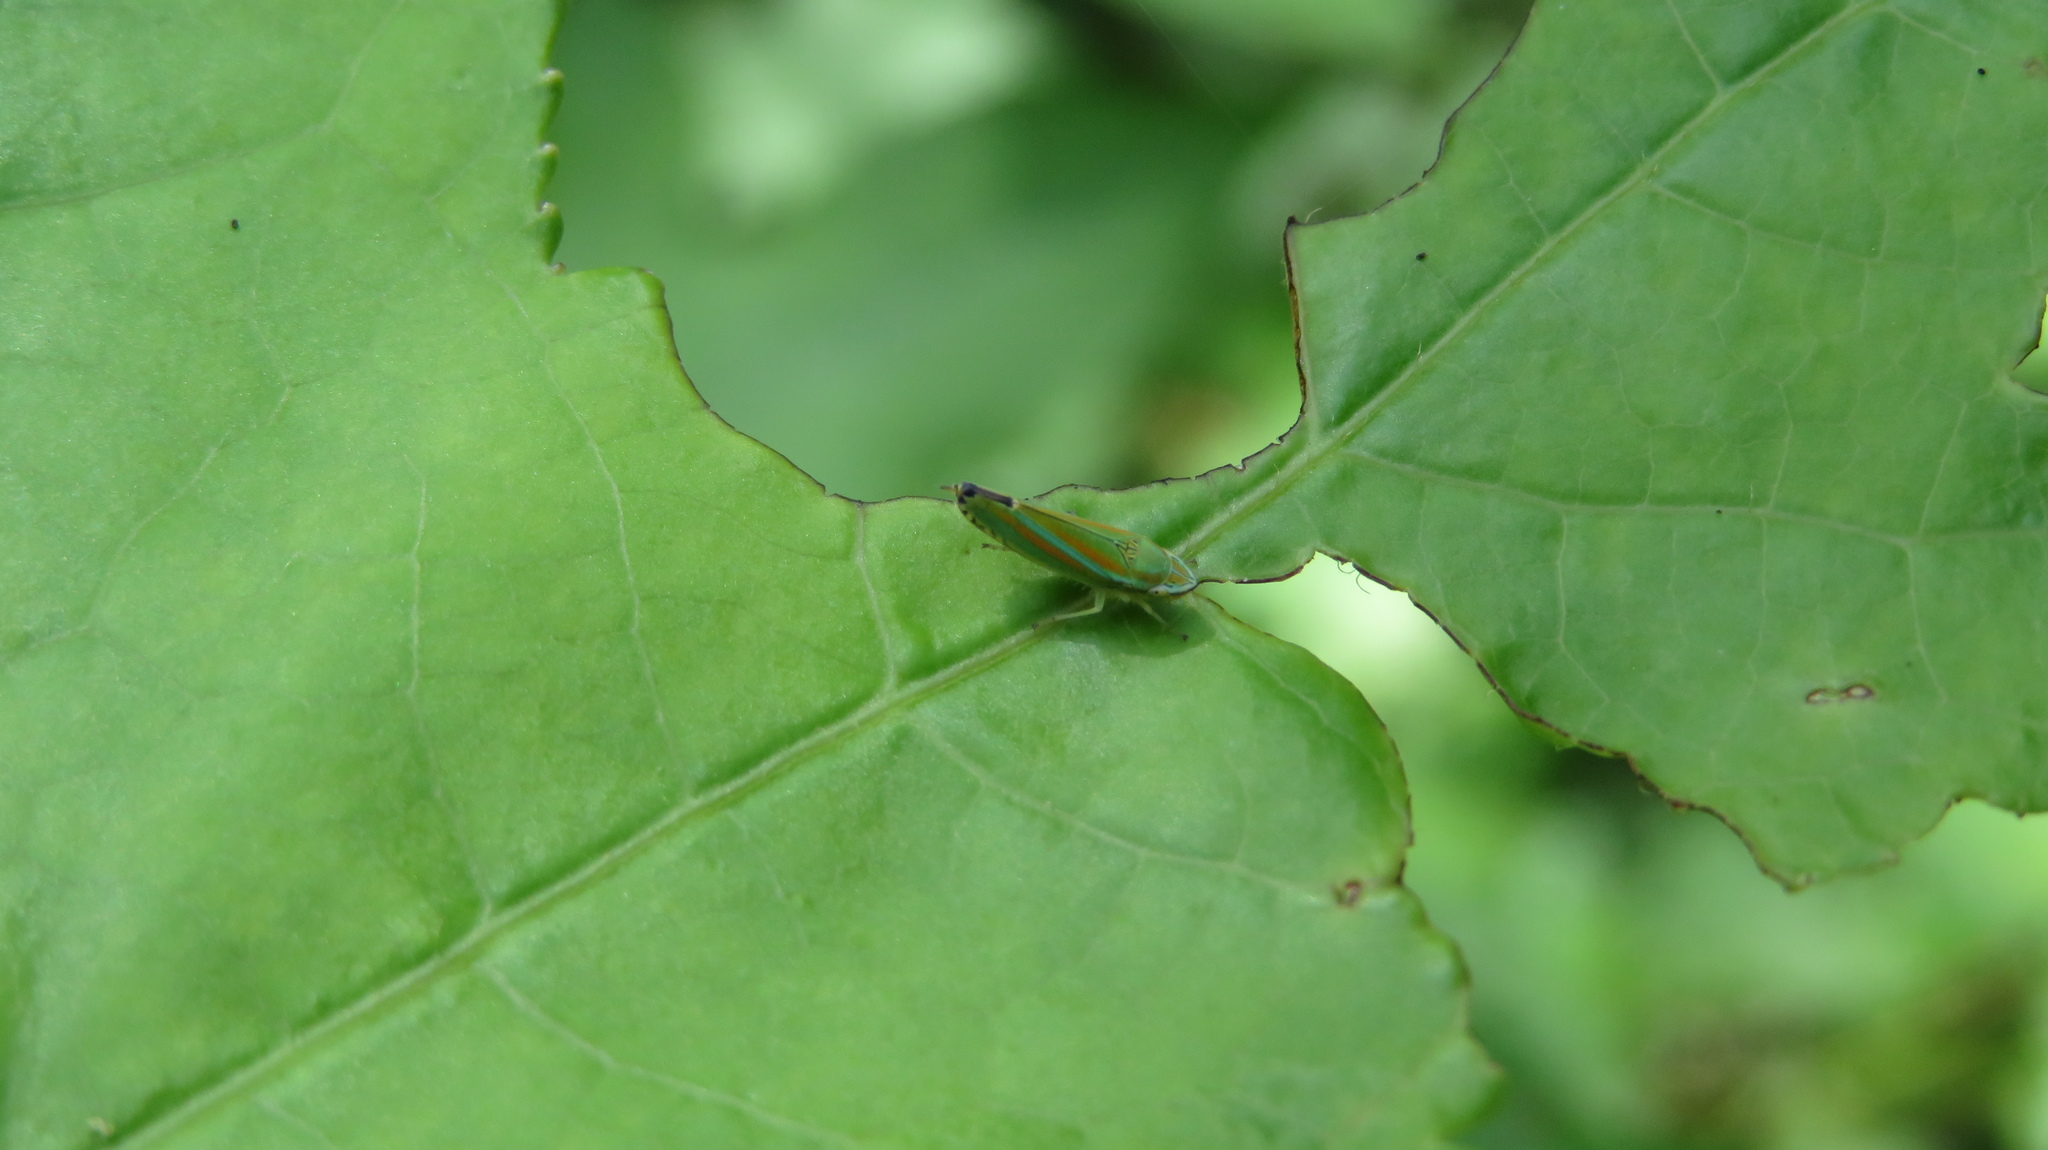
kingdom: Animalia
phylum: Arthropoda
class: Insecta
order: Hemiptera
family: Cicadellidae
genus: Graphocephala
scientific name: Graphocephala versuta
